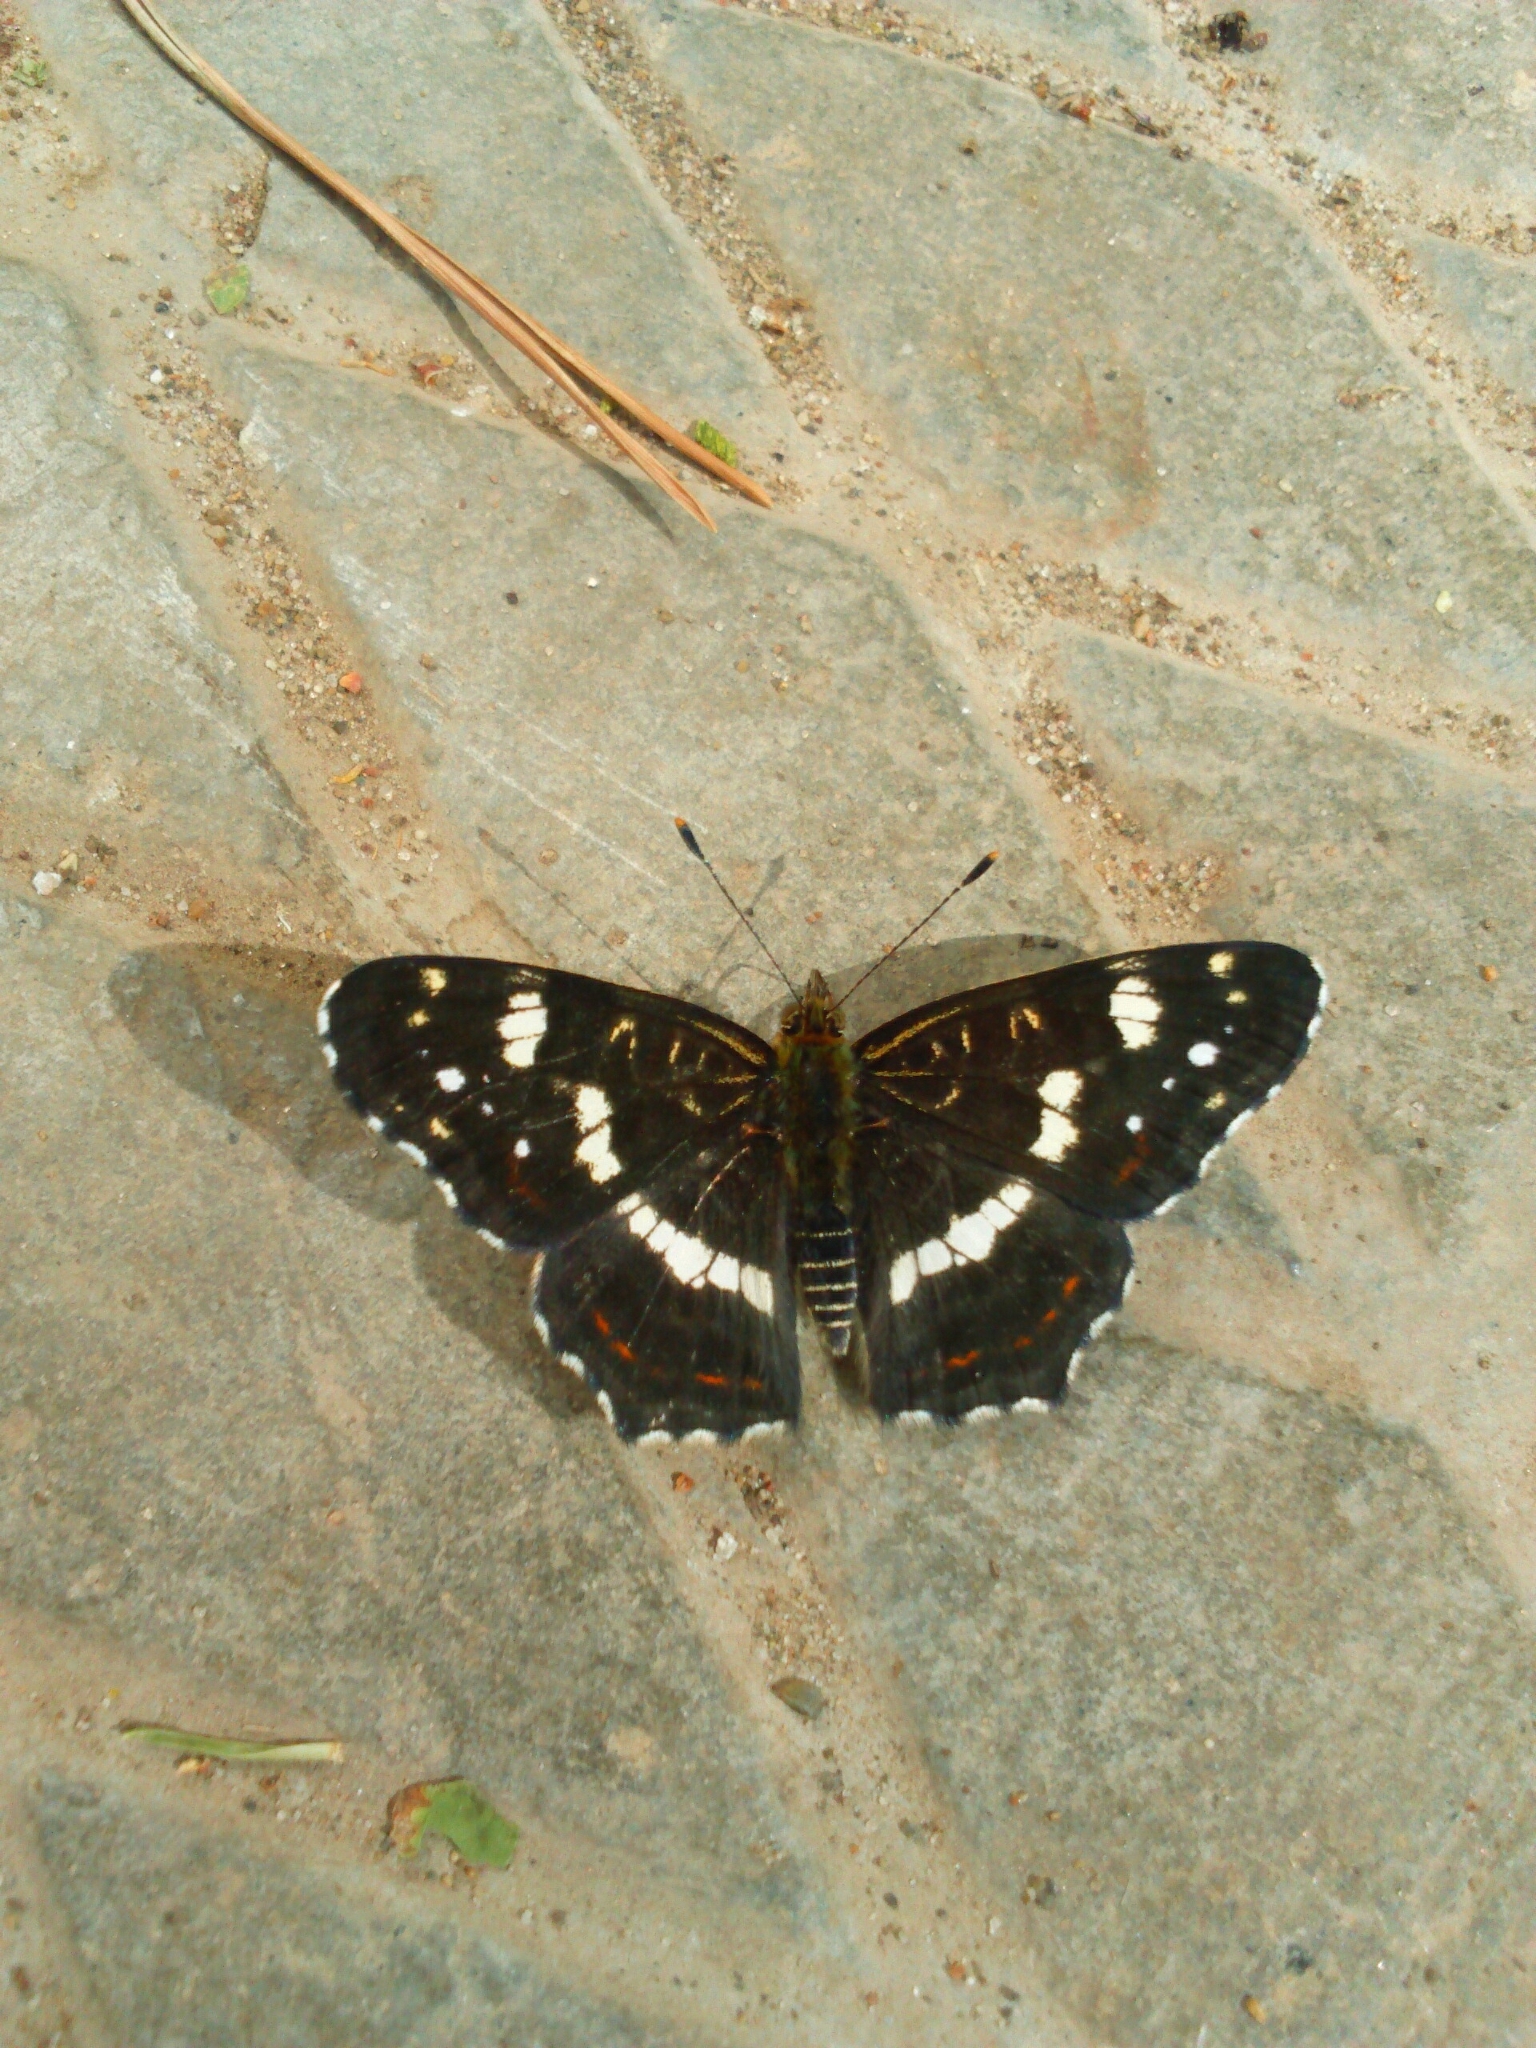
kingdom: Animalia
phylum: Arthropoda
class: Insecta
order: Lepidoptera
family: Nymphalidae
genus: Araschnia
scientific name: Araschnia levana
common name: Map butterfly
